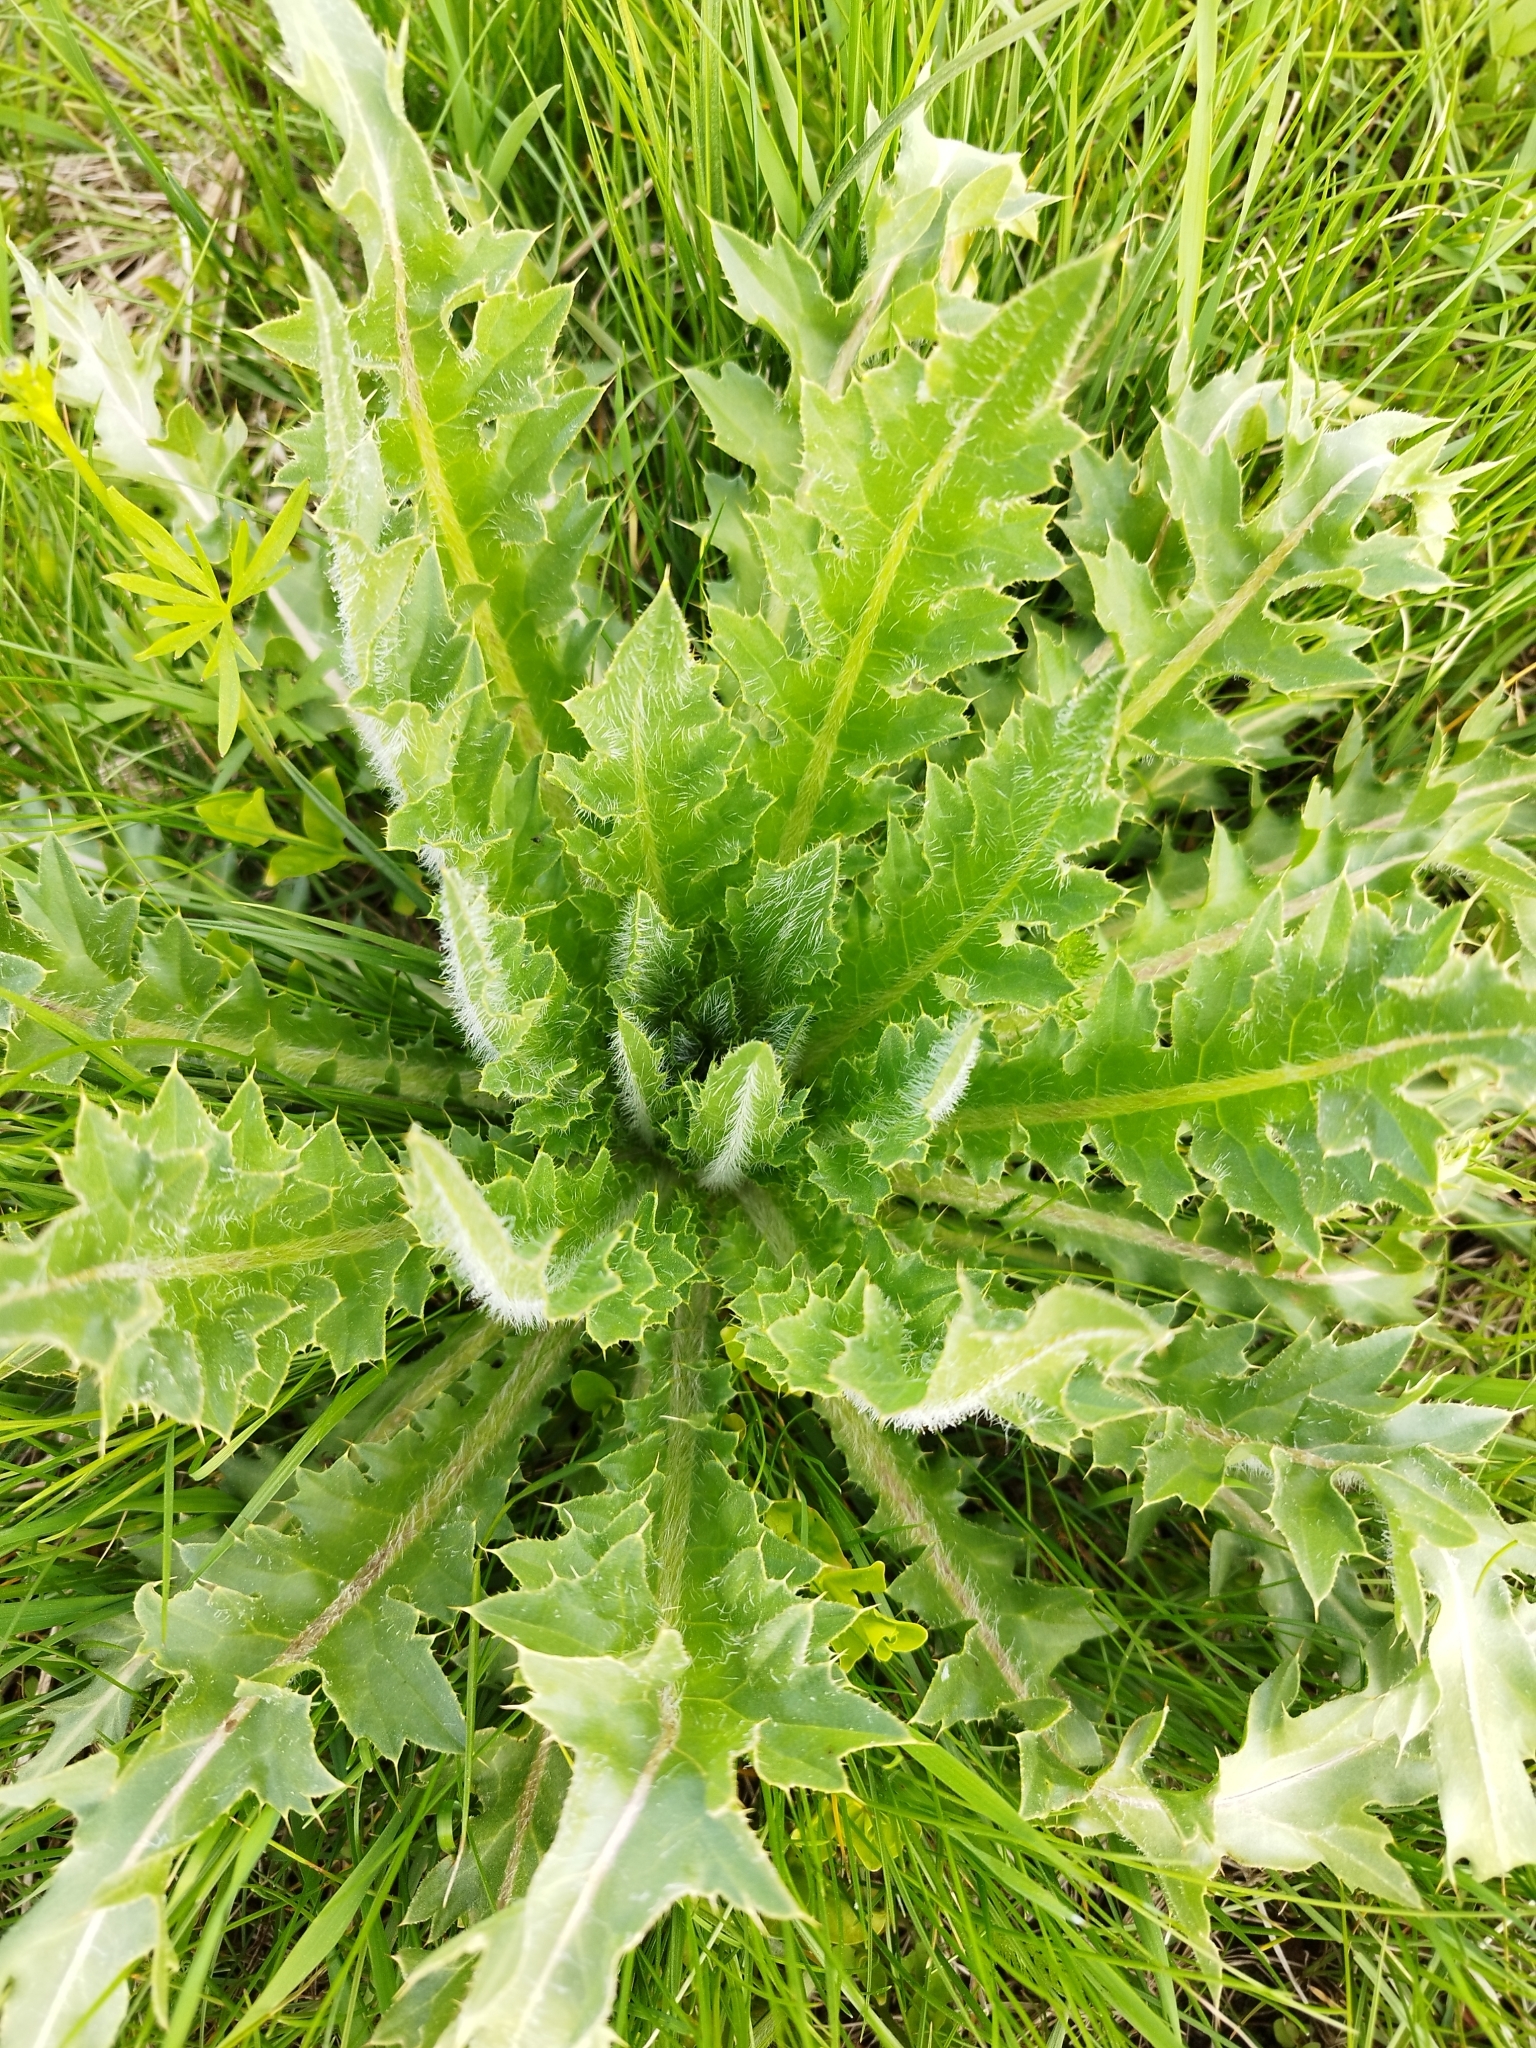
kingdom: Plantae
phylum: Tracheophyta
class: Magnoliopsida
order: Asterales
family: Asteraceae
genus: Cirsium
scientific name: Cirsium esculentum
